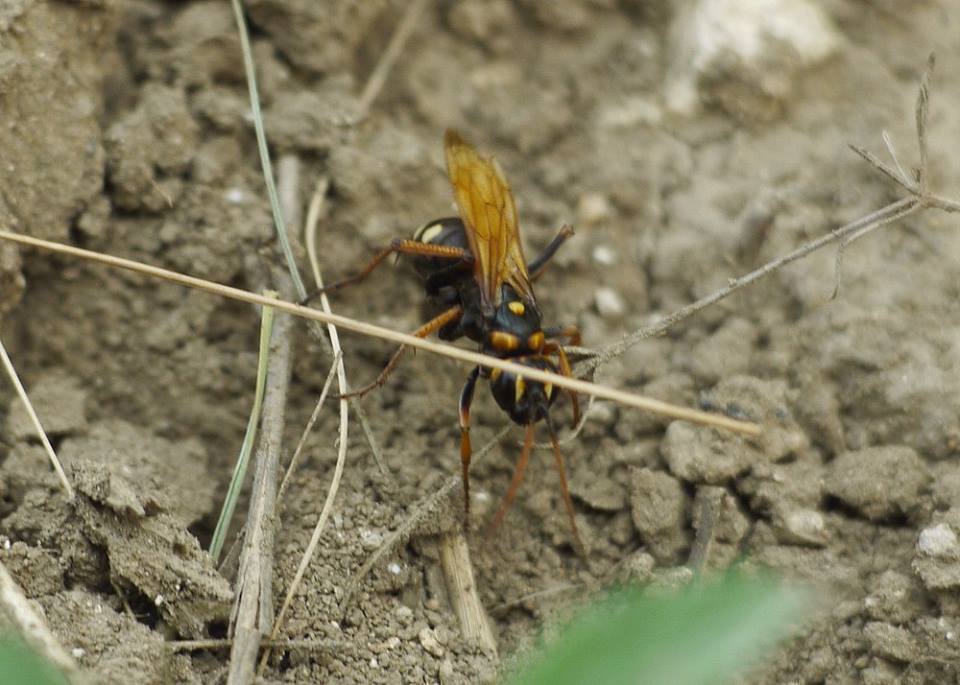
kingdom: Animalia
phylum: Arthropoda
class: Insecta
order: Hymenoptera
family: Pompilidae
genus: Cryptocheilus
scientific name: Cryptocheilus octomaculatus
